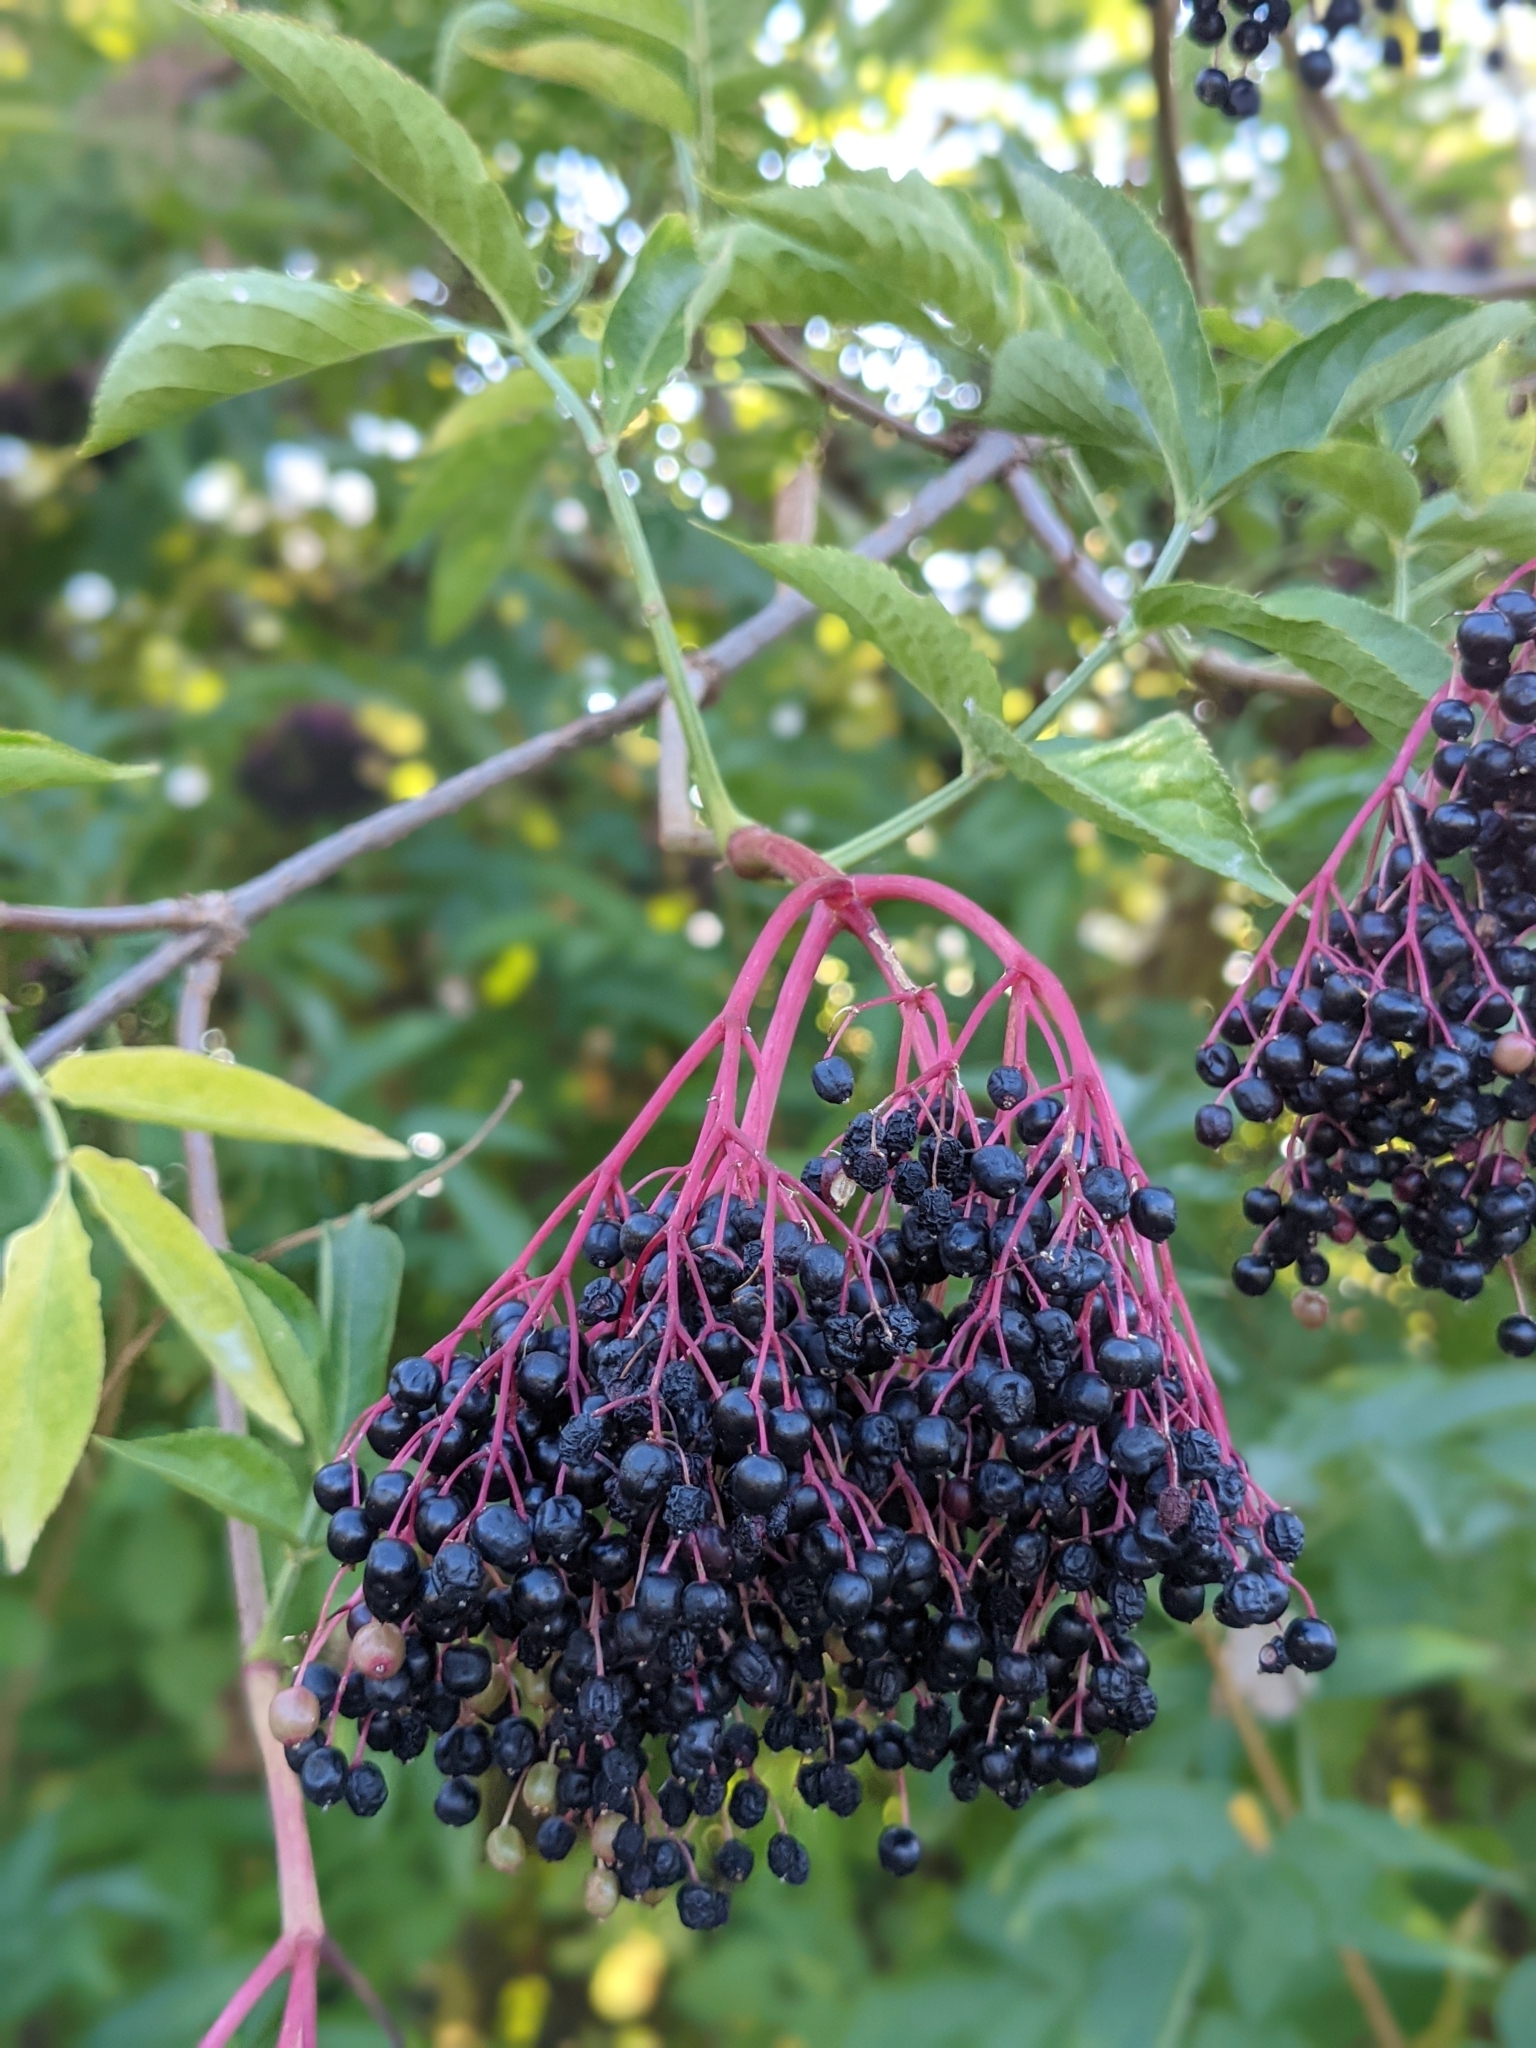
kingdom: Plantae
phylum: Tracheophyta
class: Magnoliopsida
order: Dipsacales
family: Viburnaceae
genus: Sambucus
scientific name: Sambucus nigra
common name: Elder
